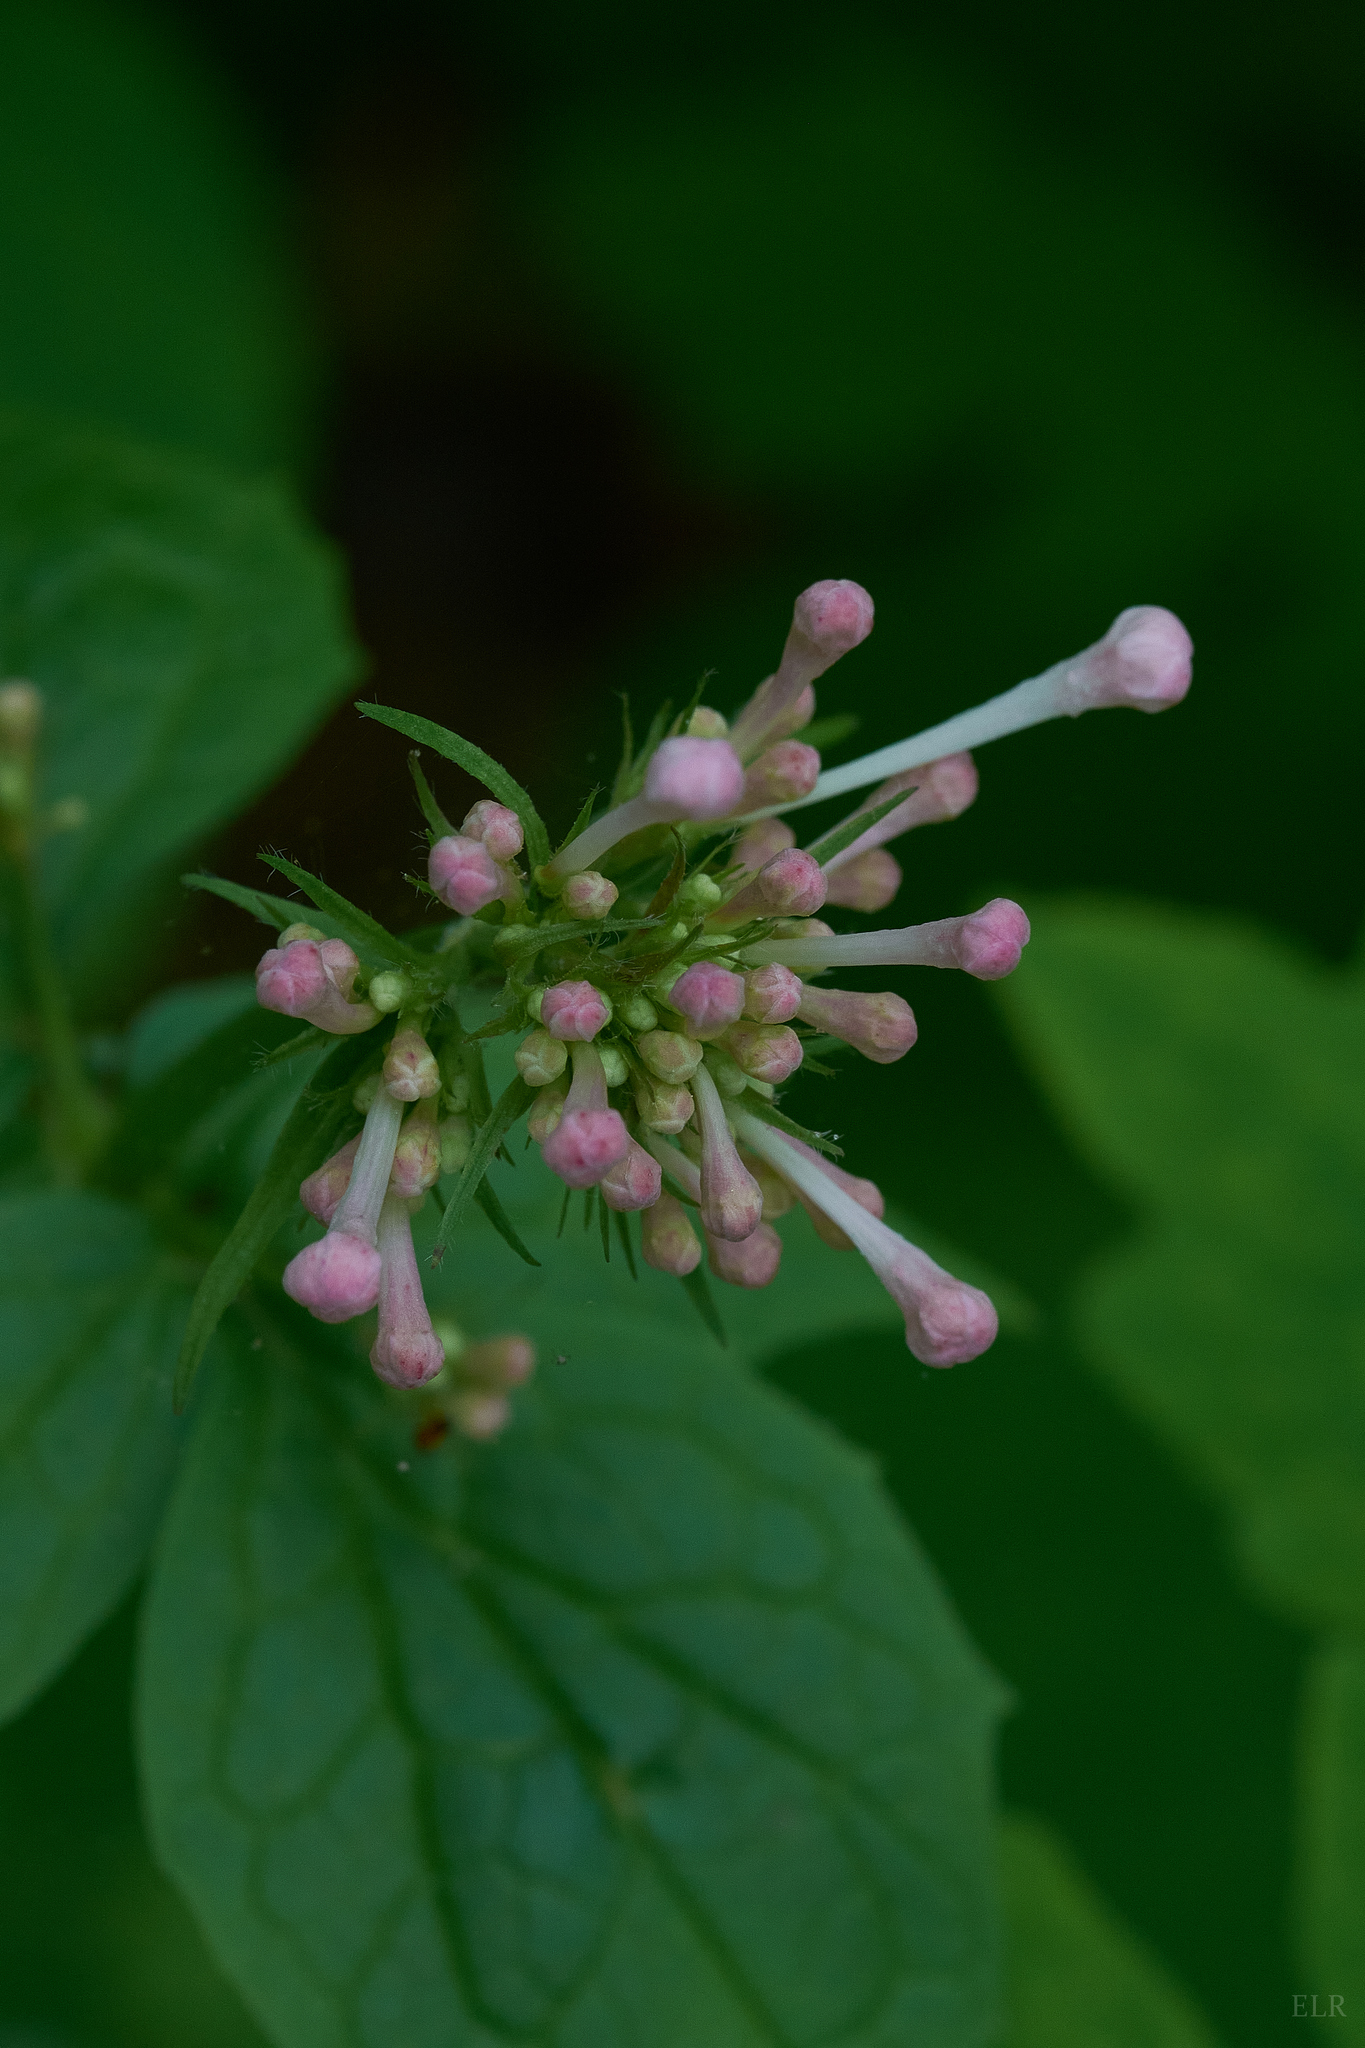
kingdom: Plantae
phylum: Tracheophyta
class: Magnoliopsida
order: Dipsacales
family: Caprifoliaceae
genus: Valeriana
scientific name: Valeriana pauciflora
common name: Long-tube valeriana
